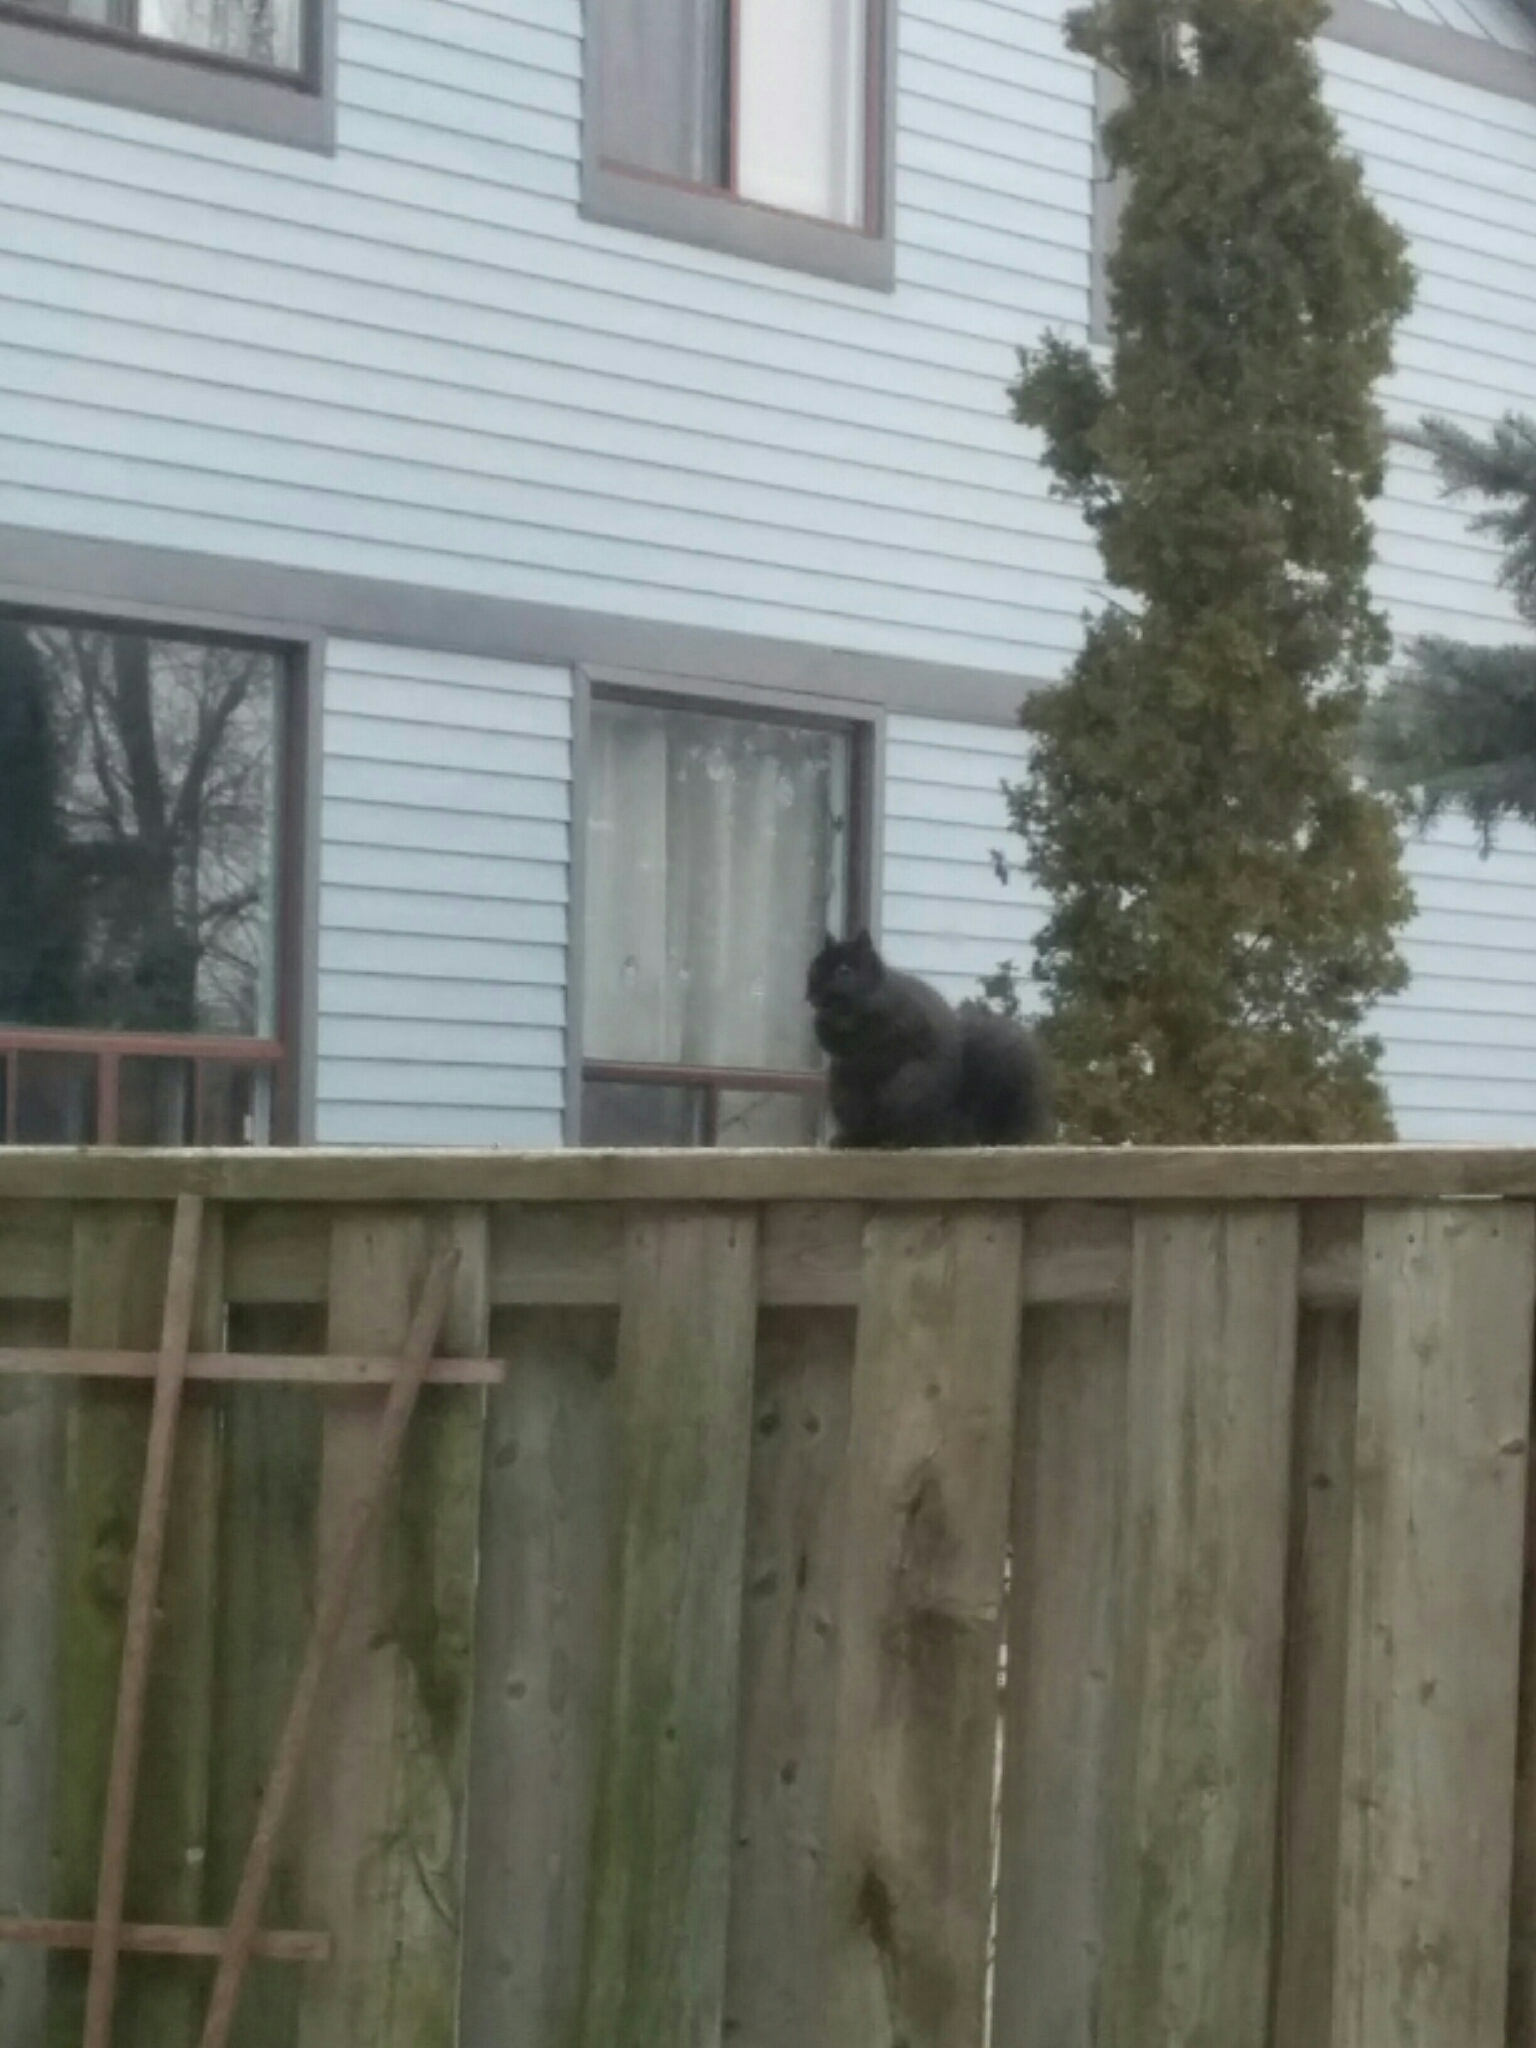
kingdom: Animalia
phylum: Chordata
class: Mammalia
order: Rodentia
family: Sciuridae
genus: Sciurus
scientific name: Sciurus carolinensis
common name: Eastern gray squirrel
